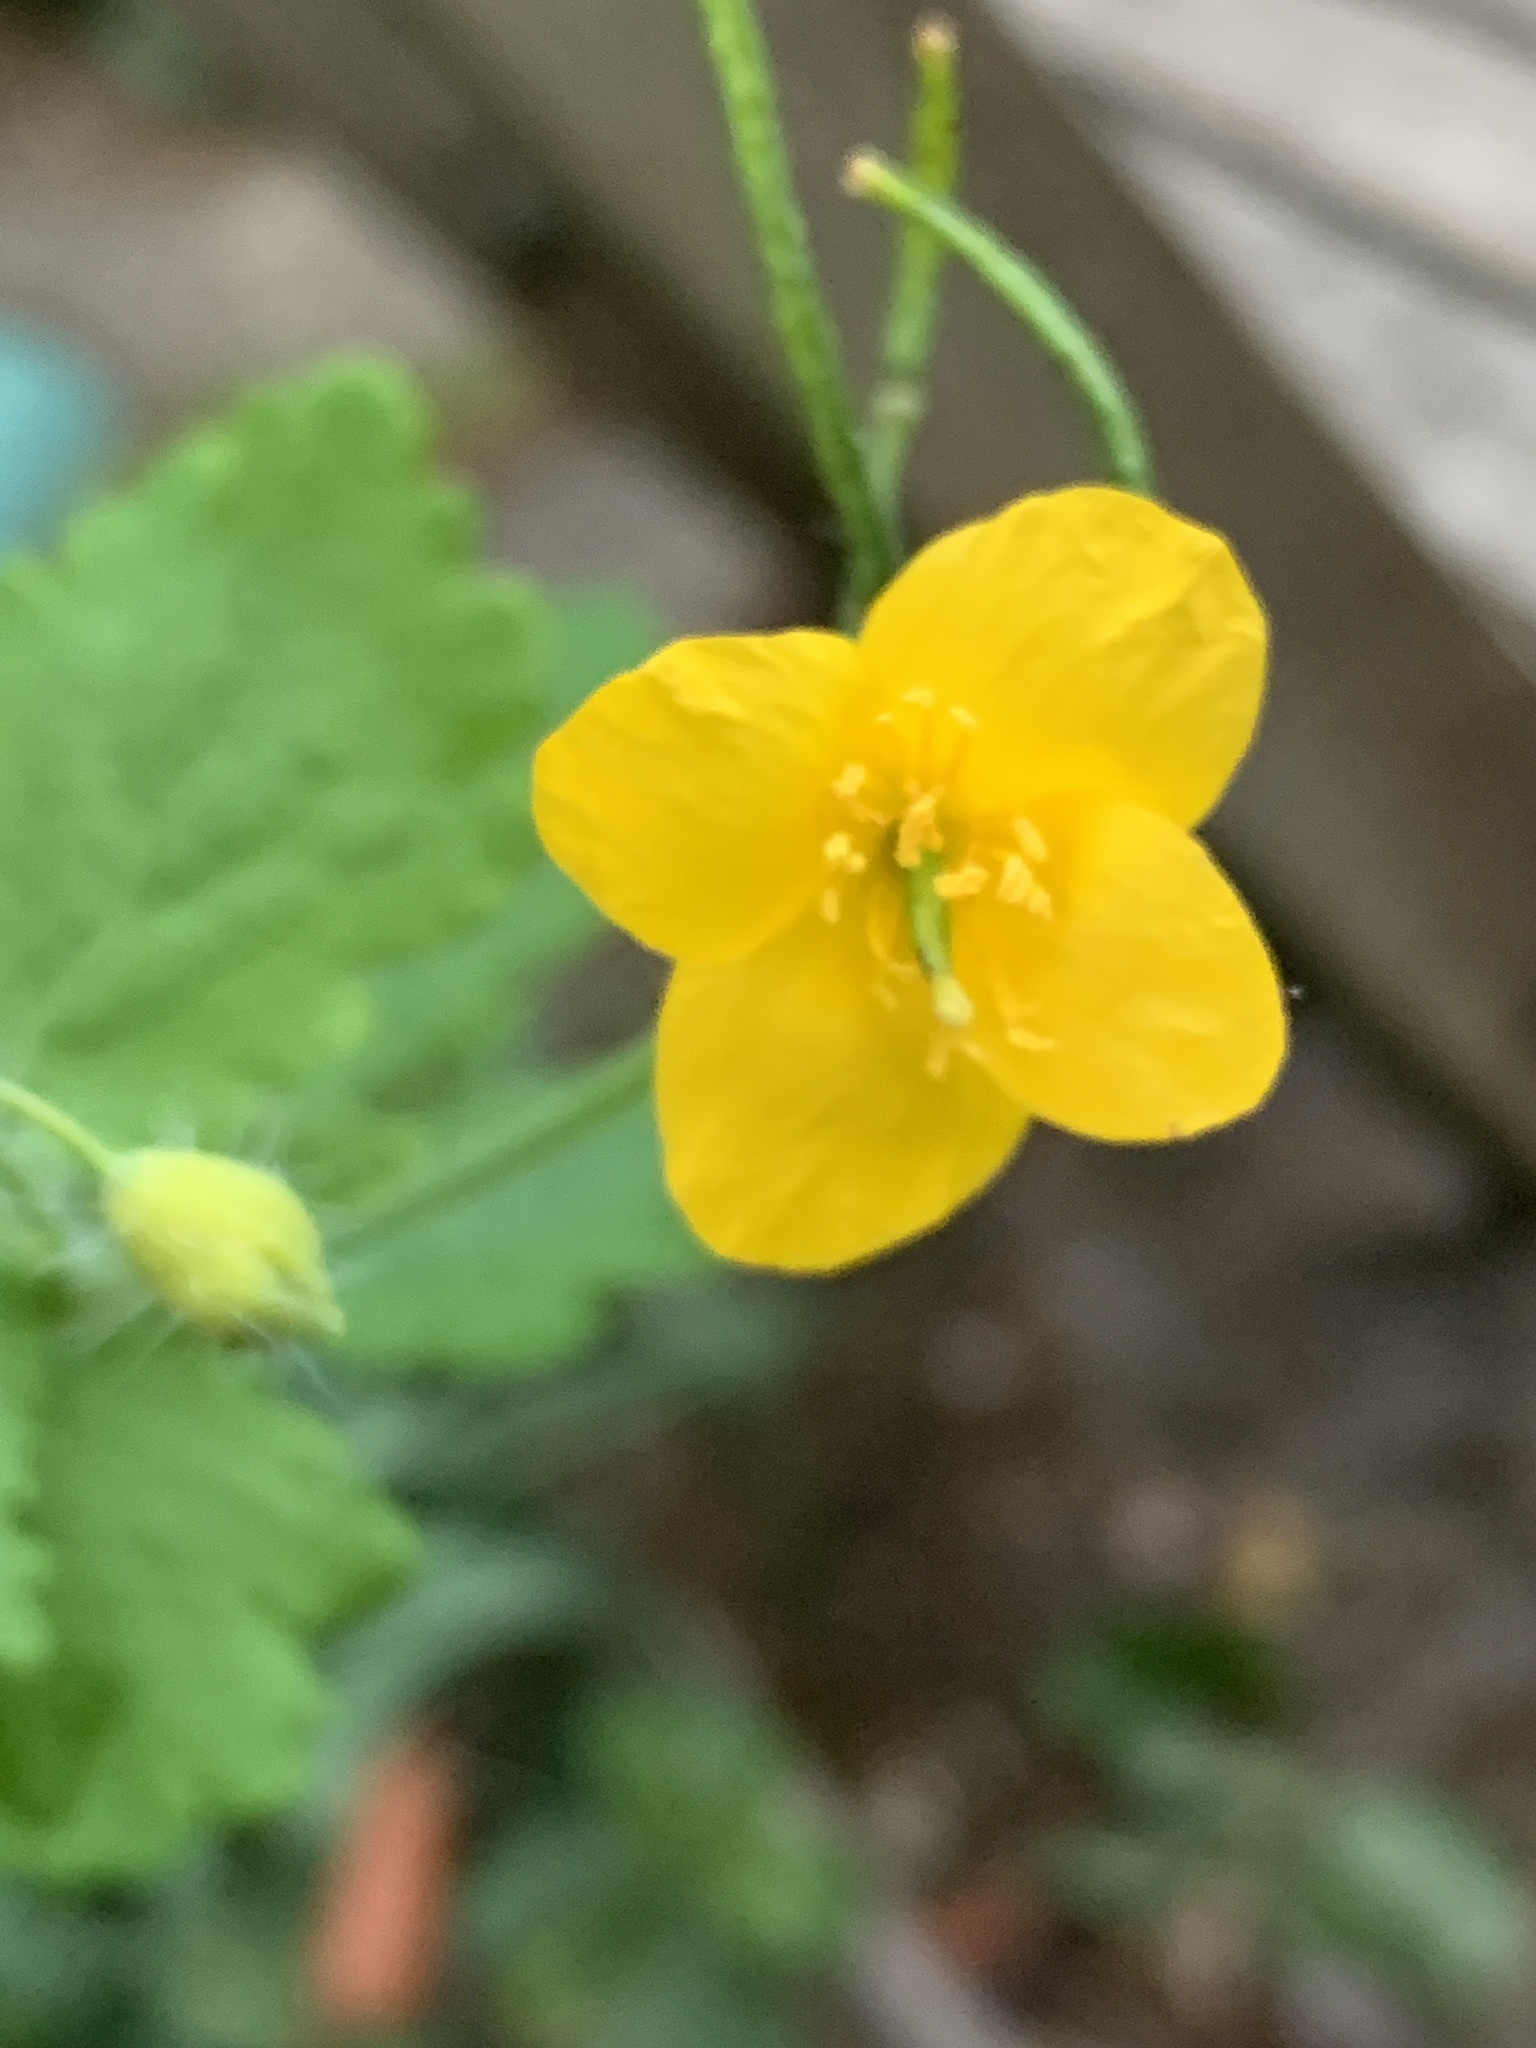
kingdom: Plantae
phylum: Tracheophyta
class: Magnoliopsida
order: Ranunculales
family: Papaveraceae
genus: Chelidonium
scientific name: Chelidonium majus
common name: Greater celandine
